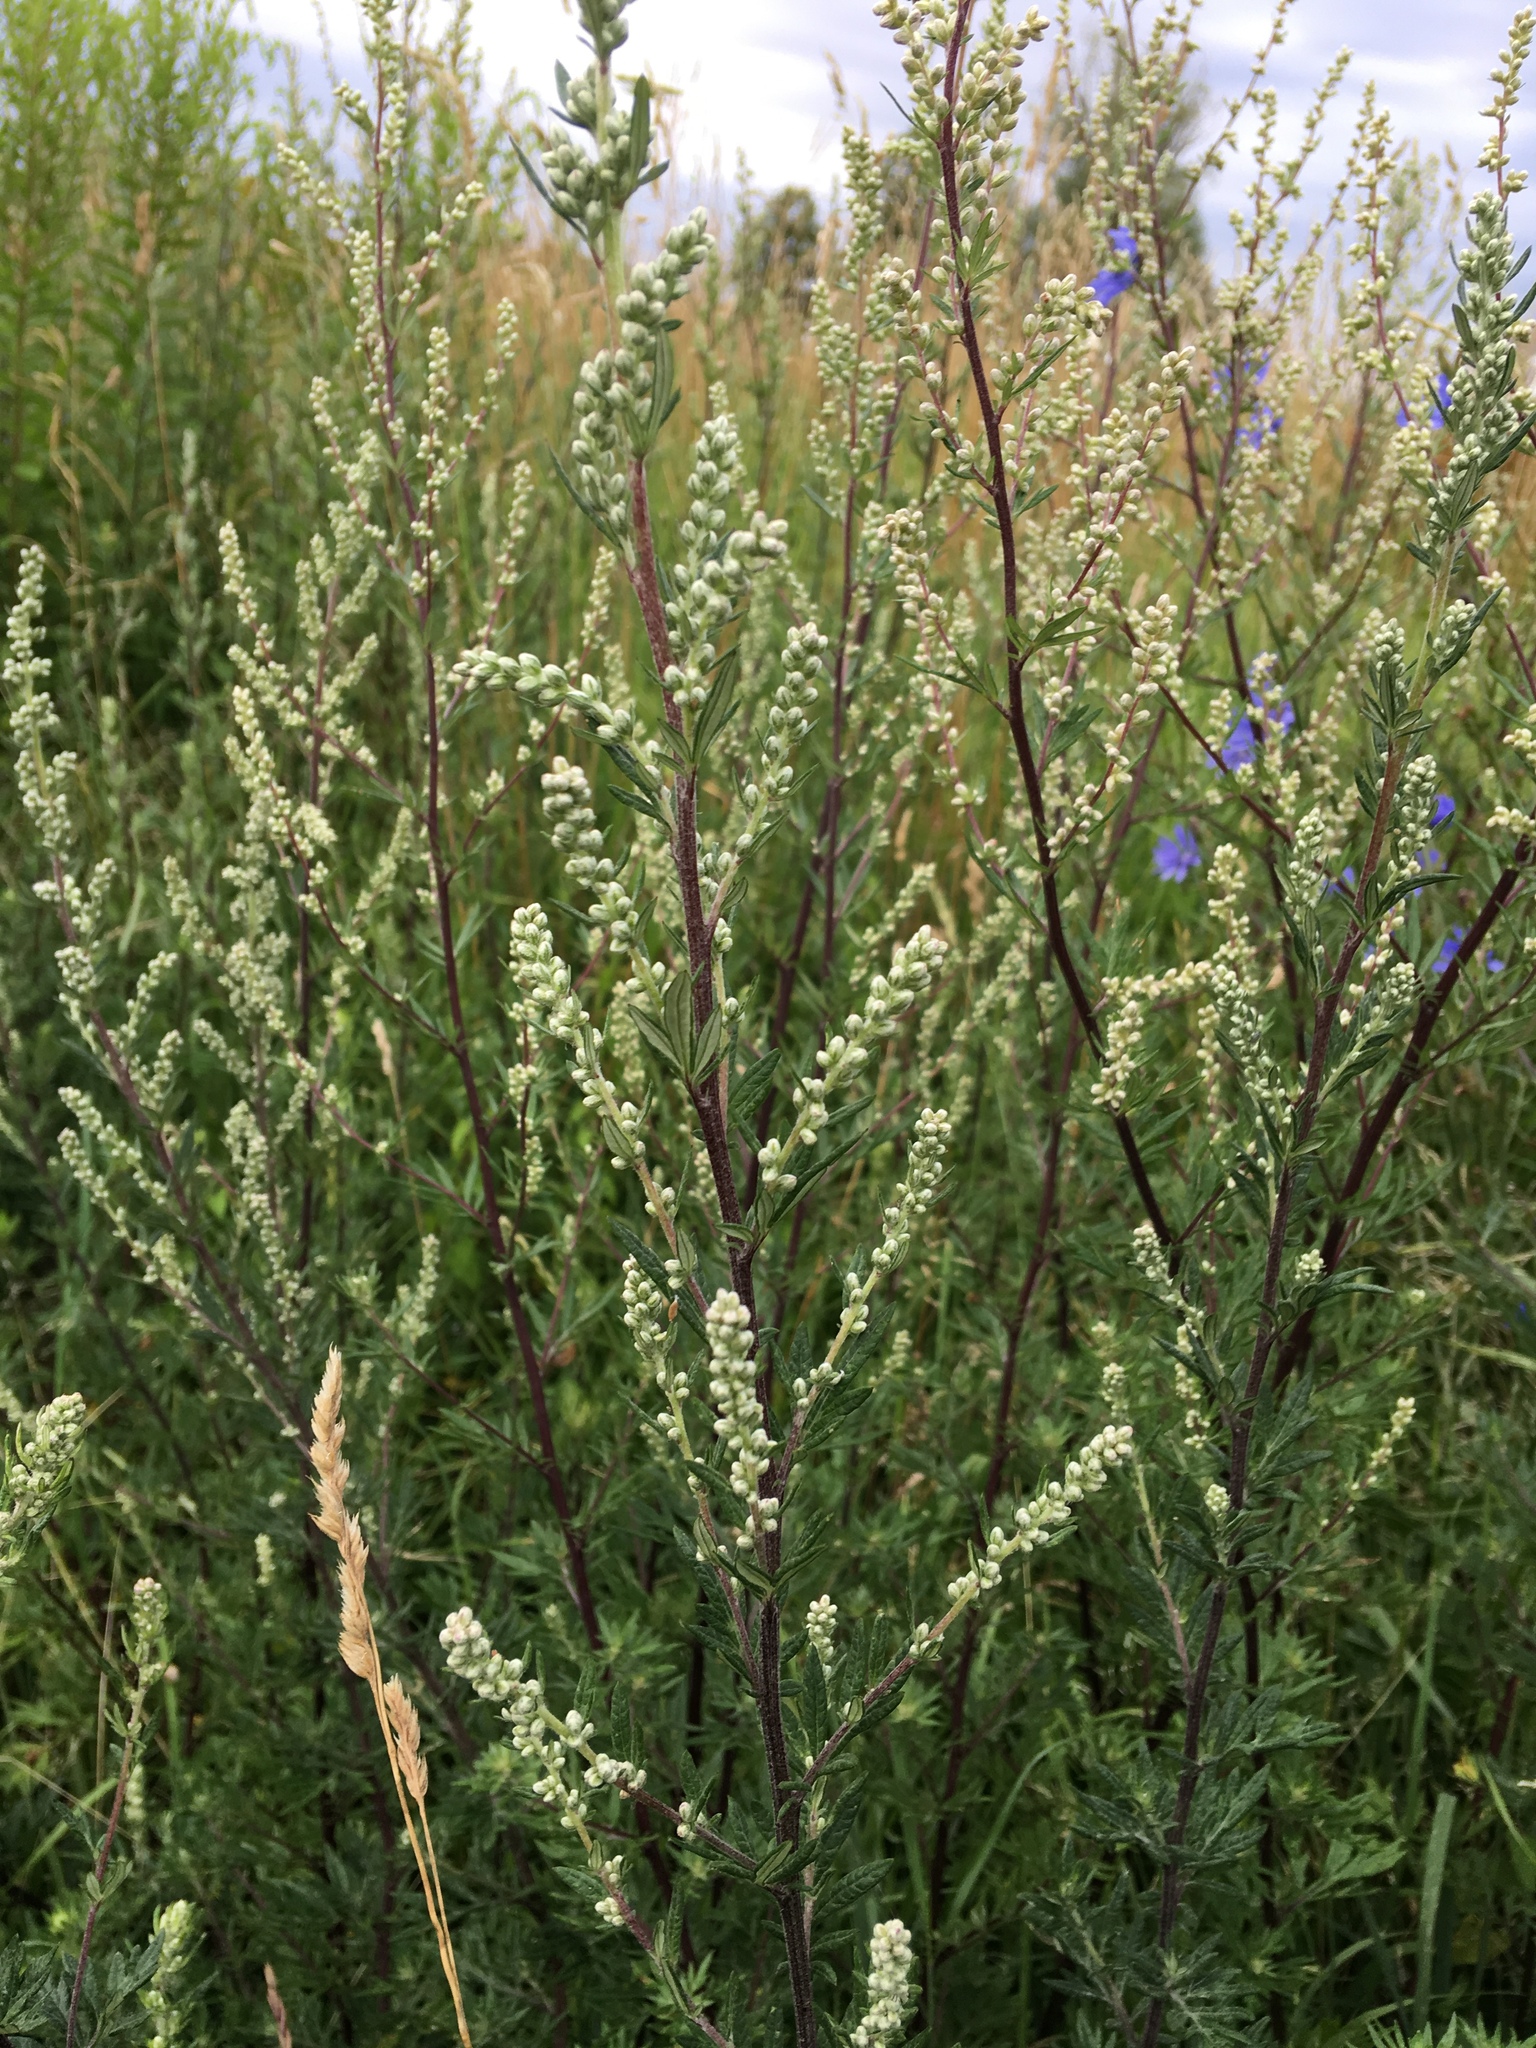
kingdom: Plantae
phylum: Tracheophyta
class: Magnoliopsida
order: Asterales
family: Asteraceae
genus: Artemisia
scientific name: Artemisia vulgaris
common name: Mugwort
